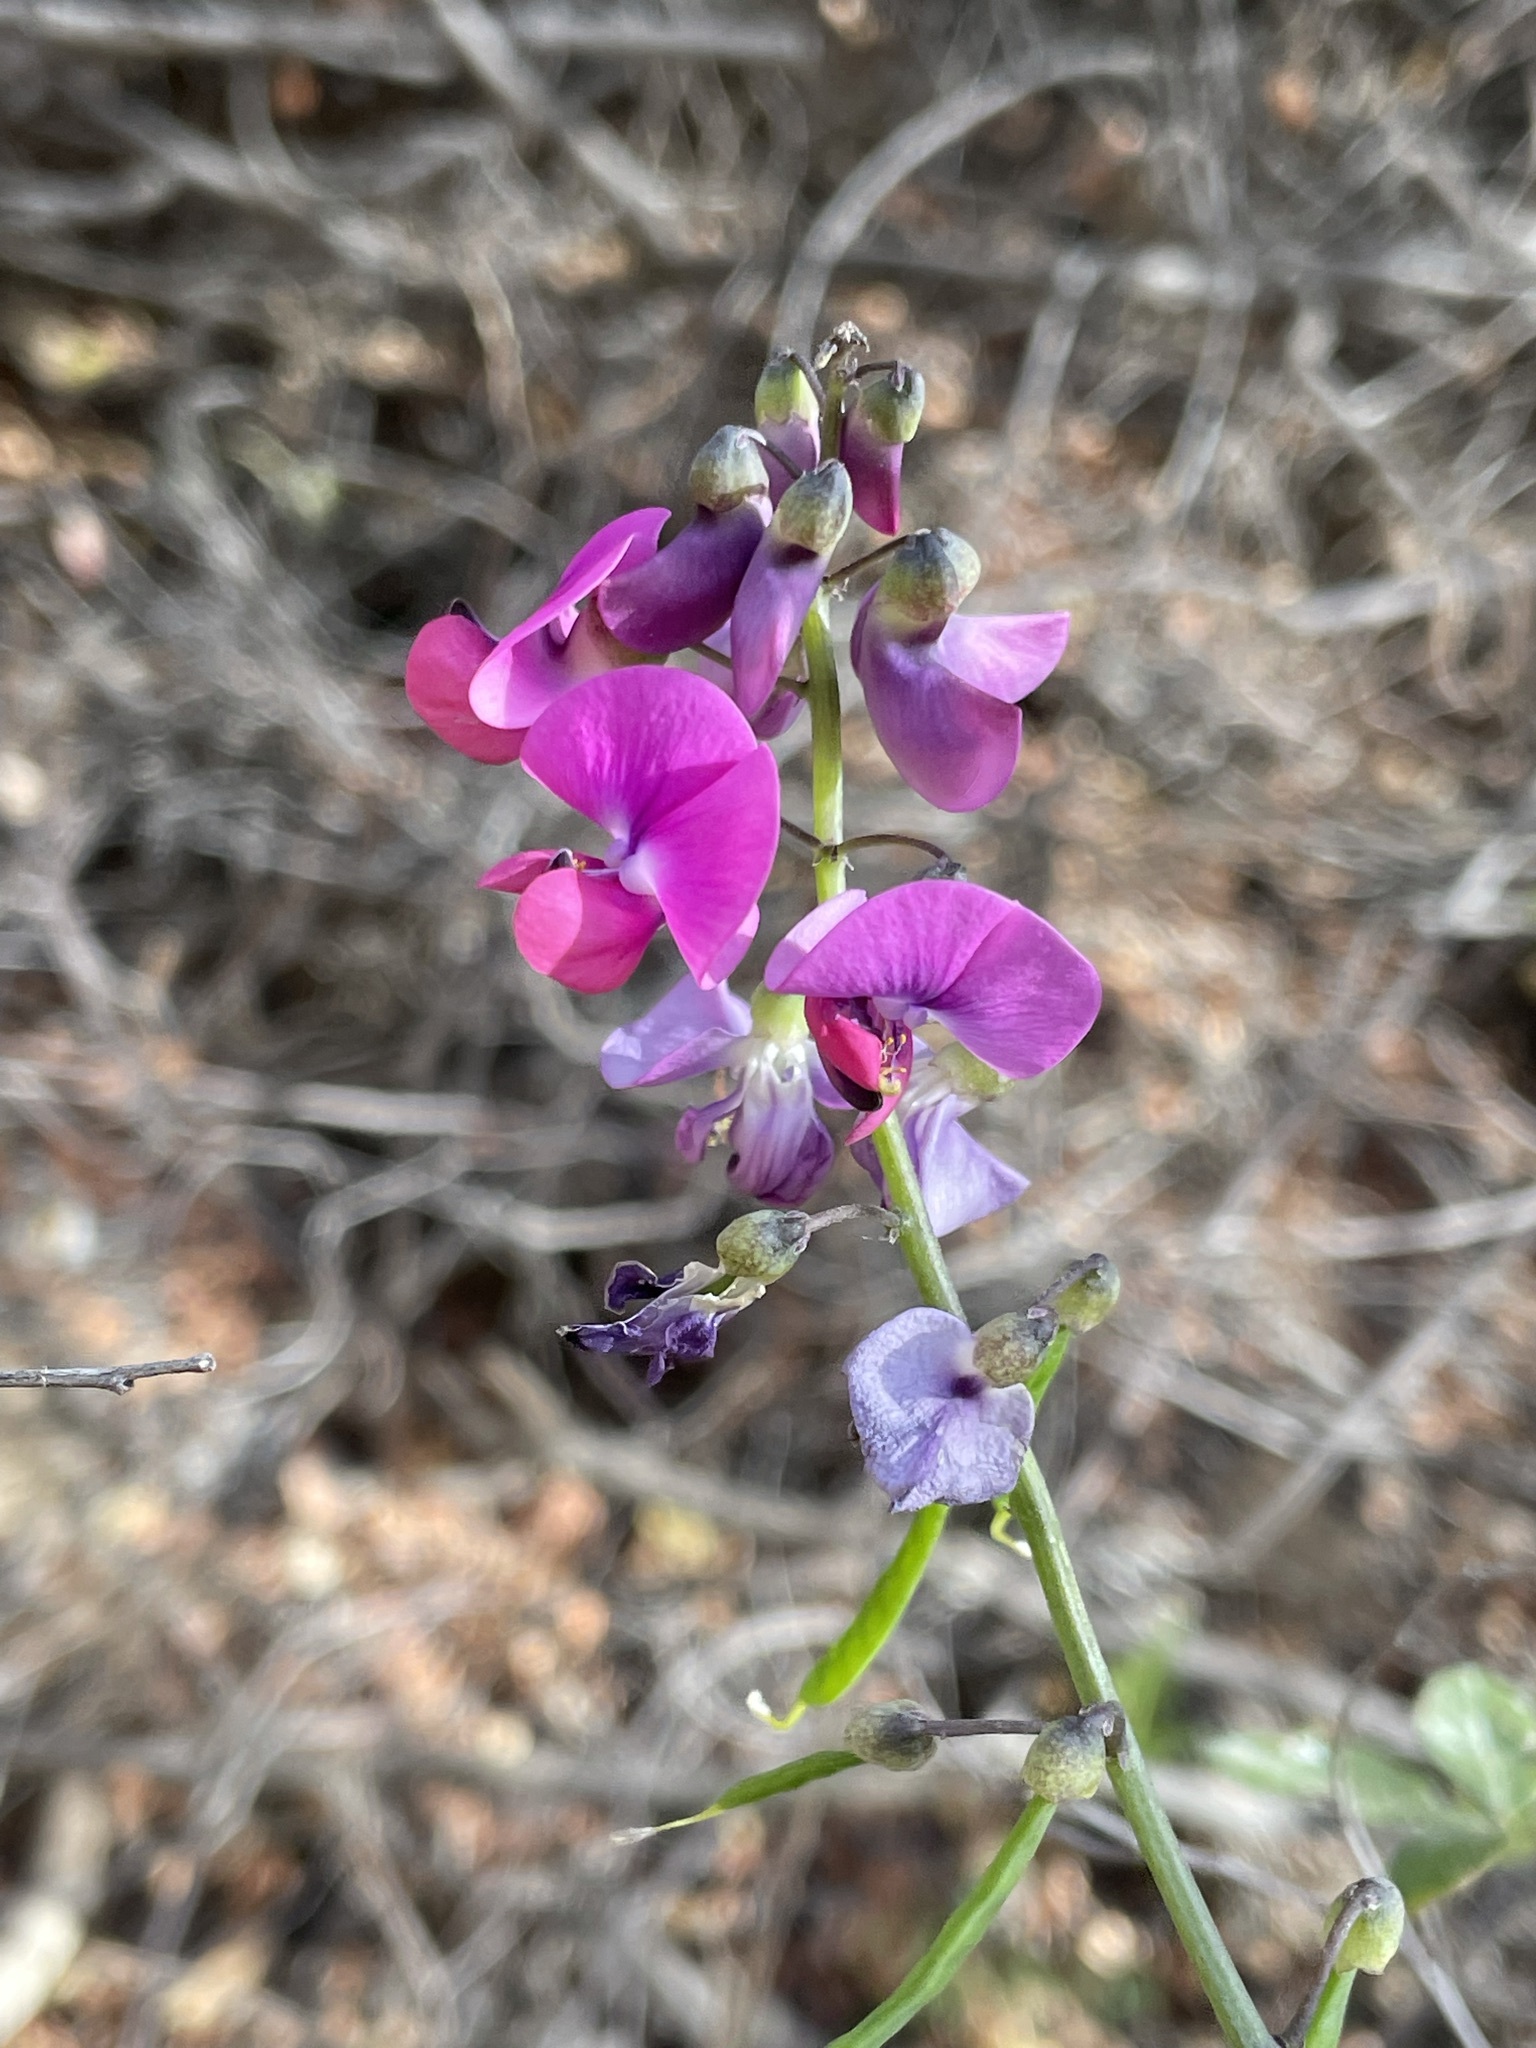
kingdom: Plantae
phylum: Tracheophyta
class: Magnoliopsida
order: Fabales
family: Fabaceae
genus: Dipogon
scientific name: Dipogon lignosus
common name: Okie bean
